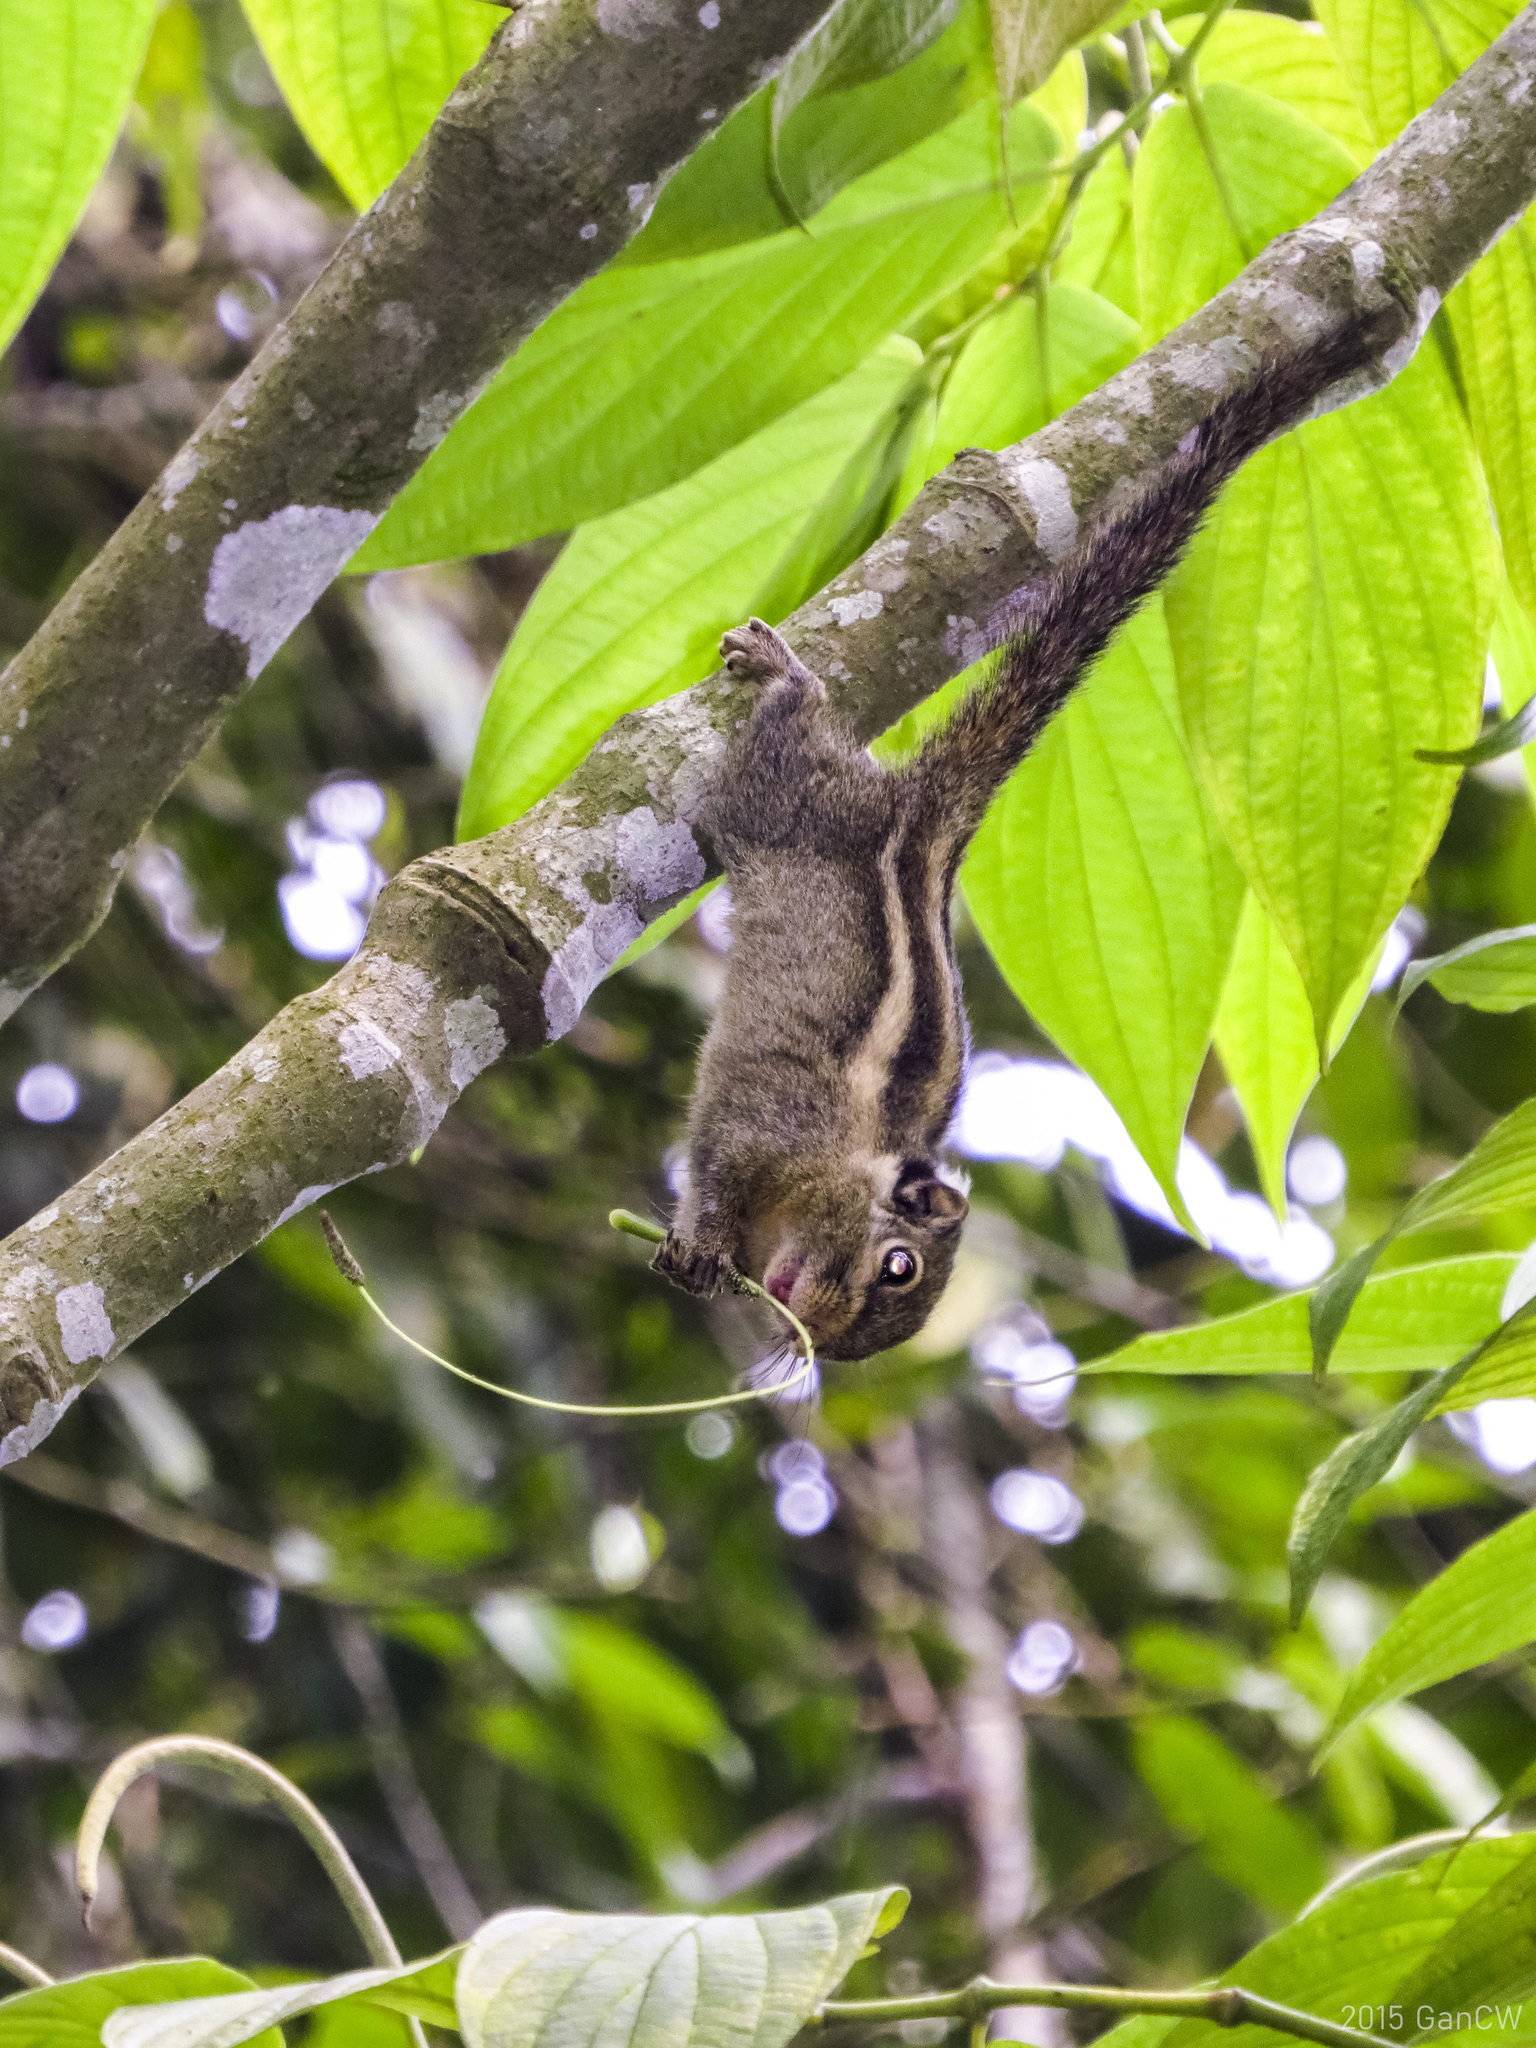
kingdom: Animalia
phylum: Chordata
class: Mammalia
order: Rodentia
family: Sciuridae
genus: Tamiops
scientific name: Tamiops mcclellandii
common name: Himalayan striped squirrel
